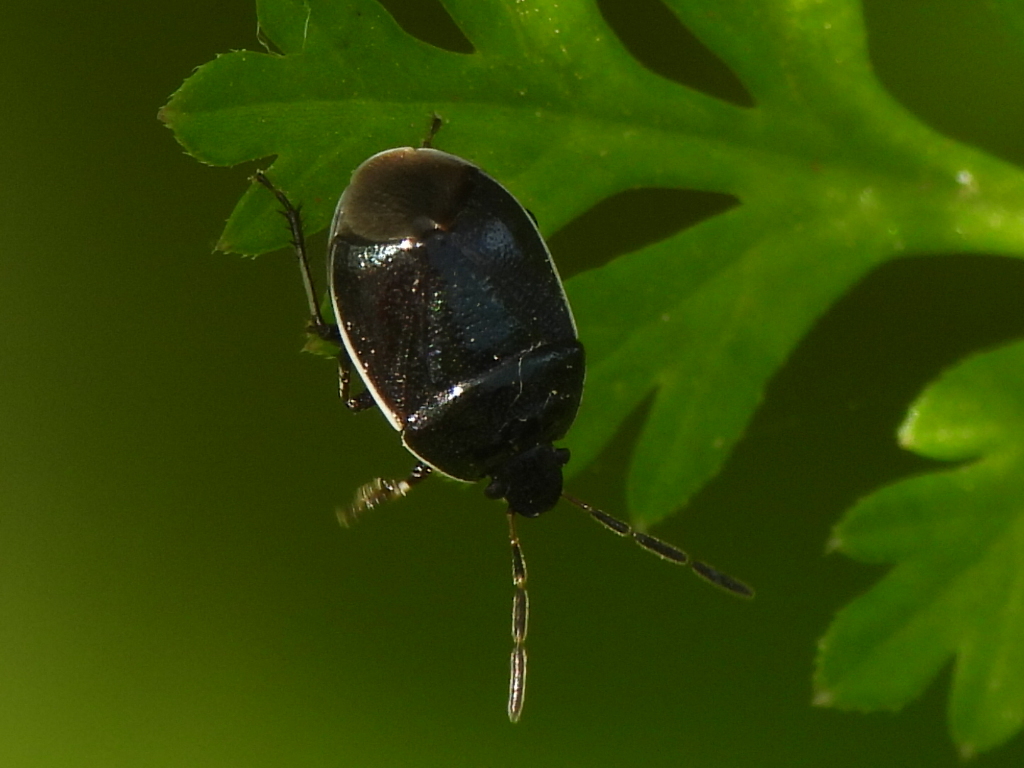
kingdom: Animalia
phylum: Arthropoda
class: Insecta
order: Hemiptera
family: Cydnidae
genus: Sehirus
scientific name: Sehirus cinctus
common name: White-margined burrower bug
